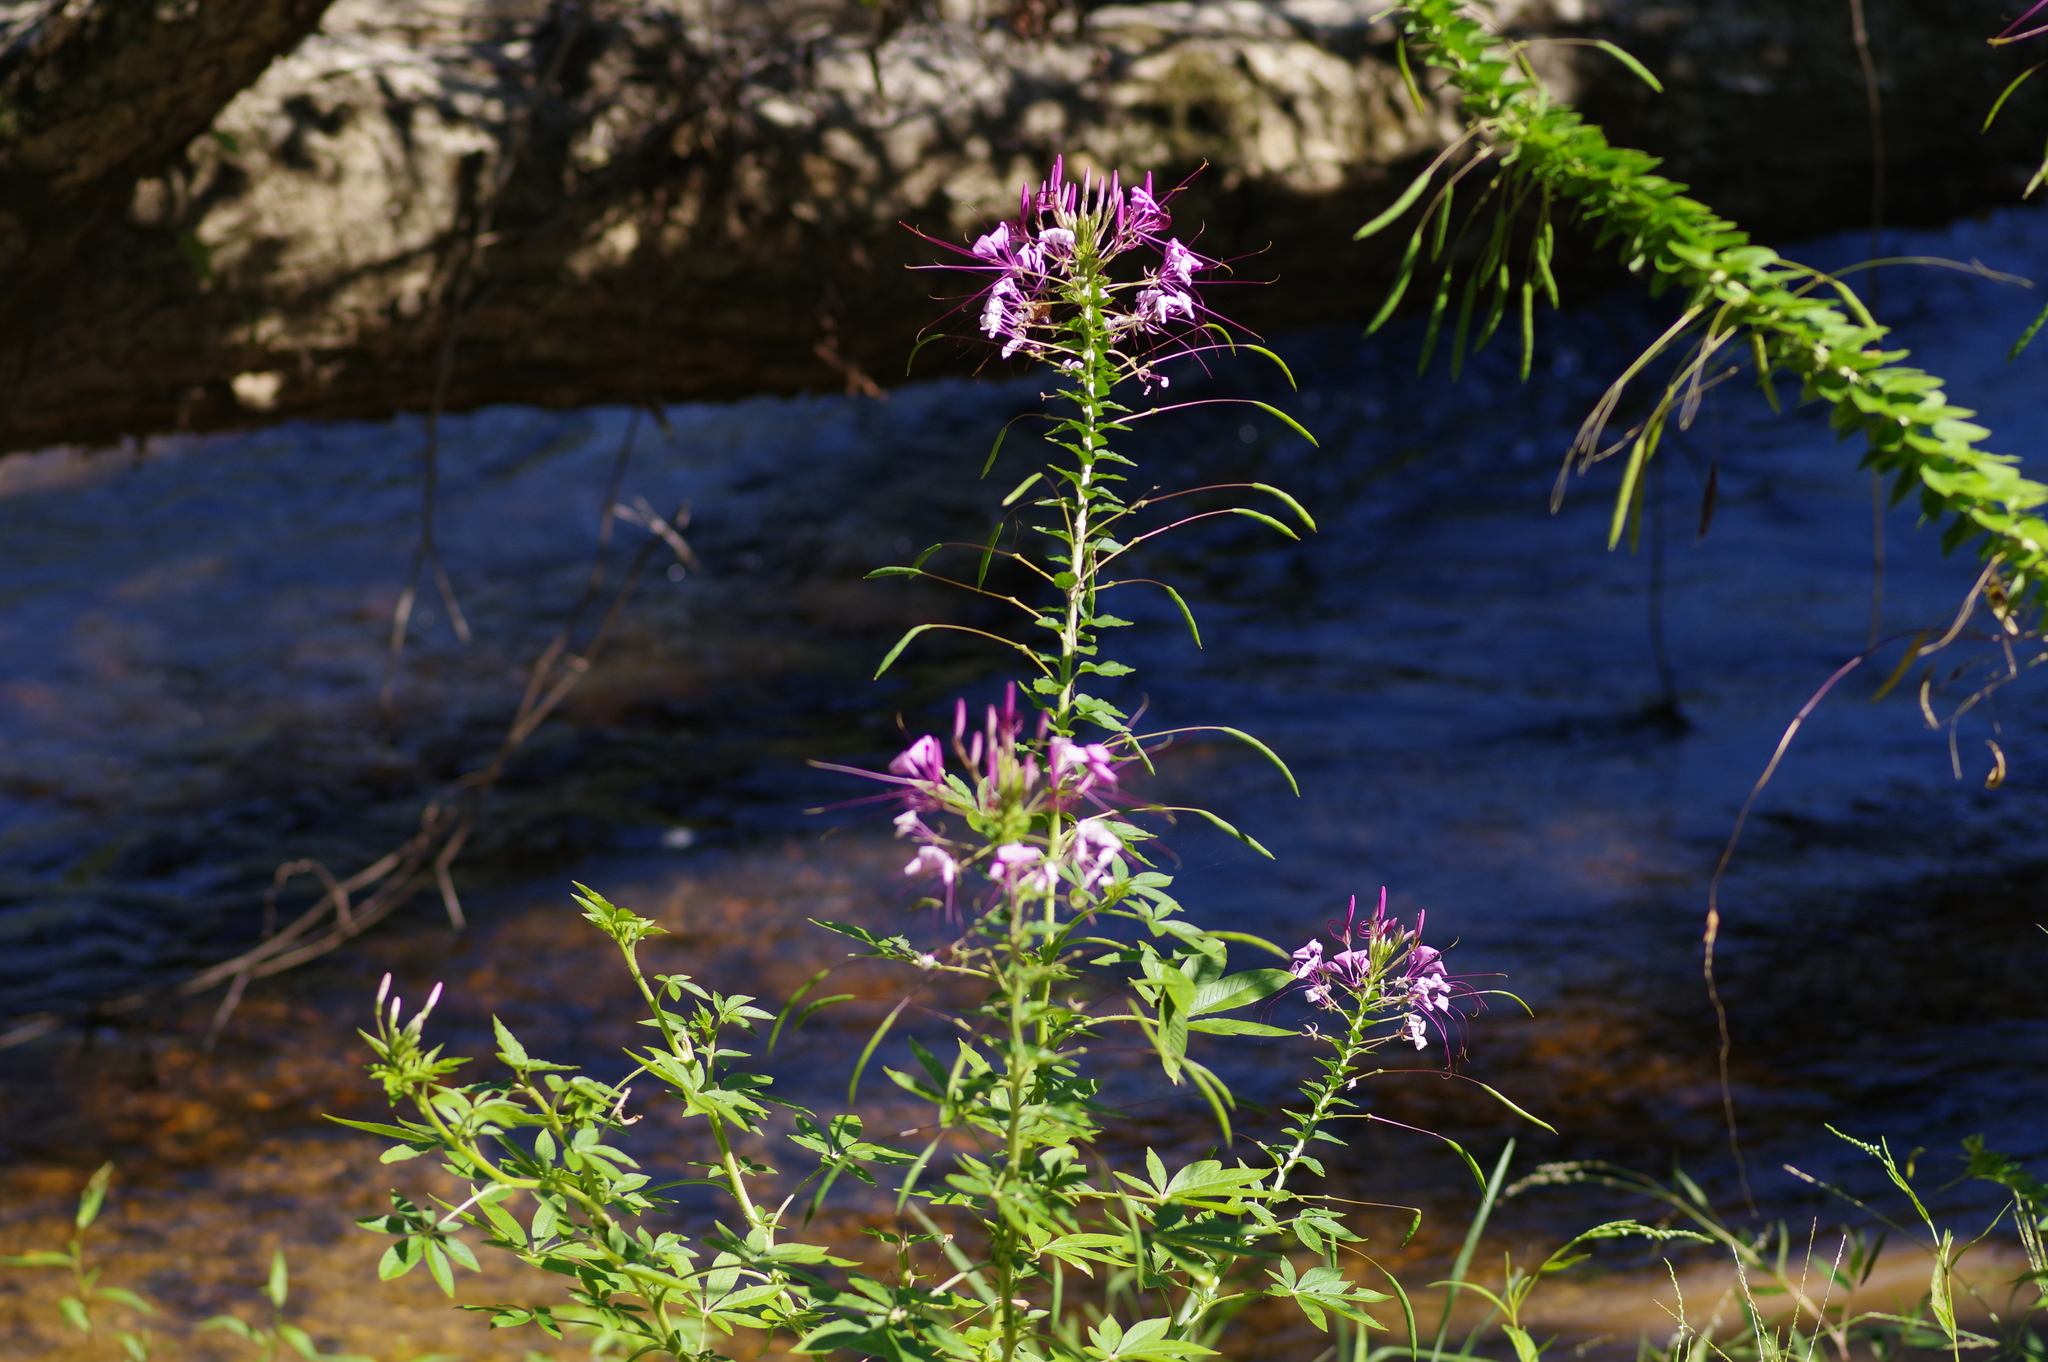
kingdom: Plantae
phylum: Tracheophyta
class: Magnoliopsida
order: Brassicales
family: Cleomaceae
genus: Tarenaya
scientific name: Tarenaya houtteana
